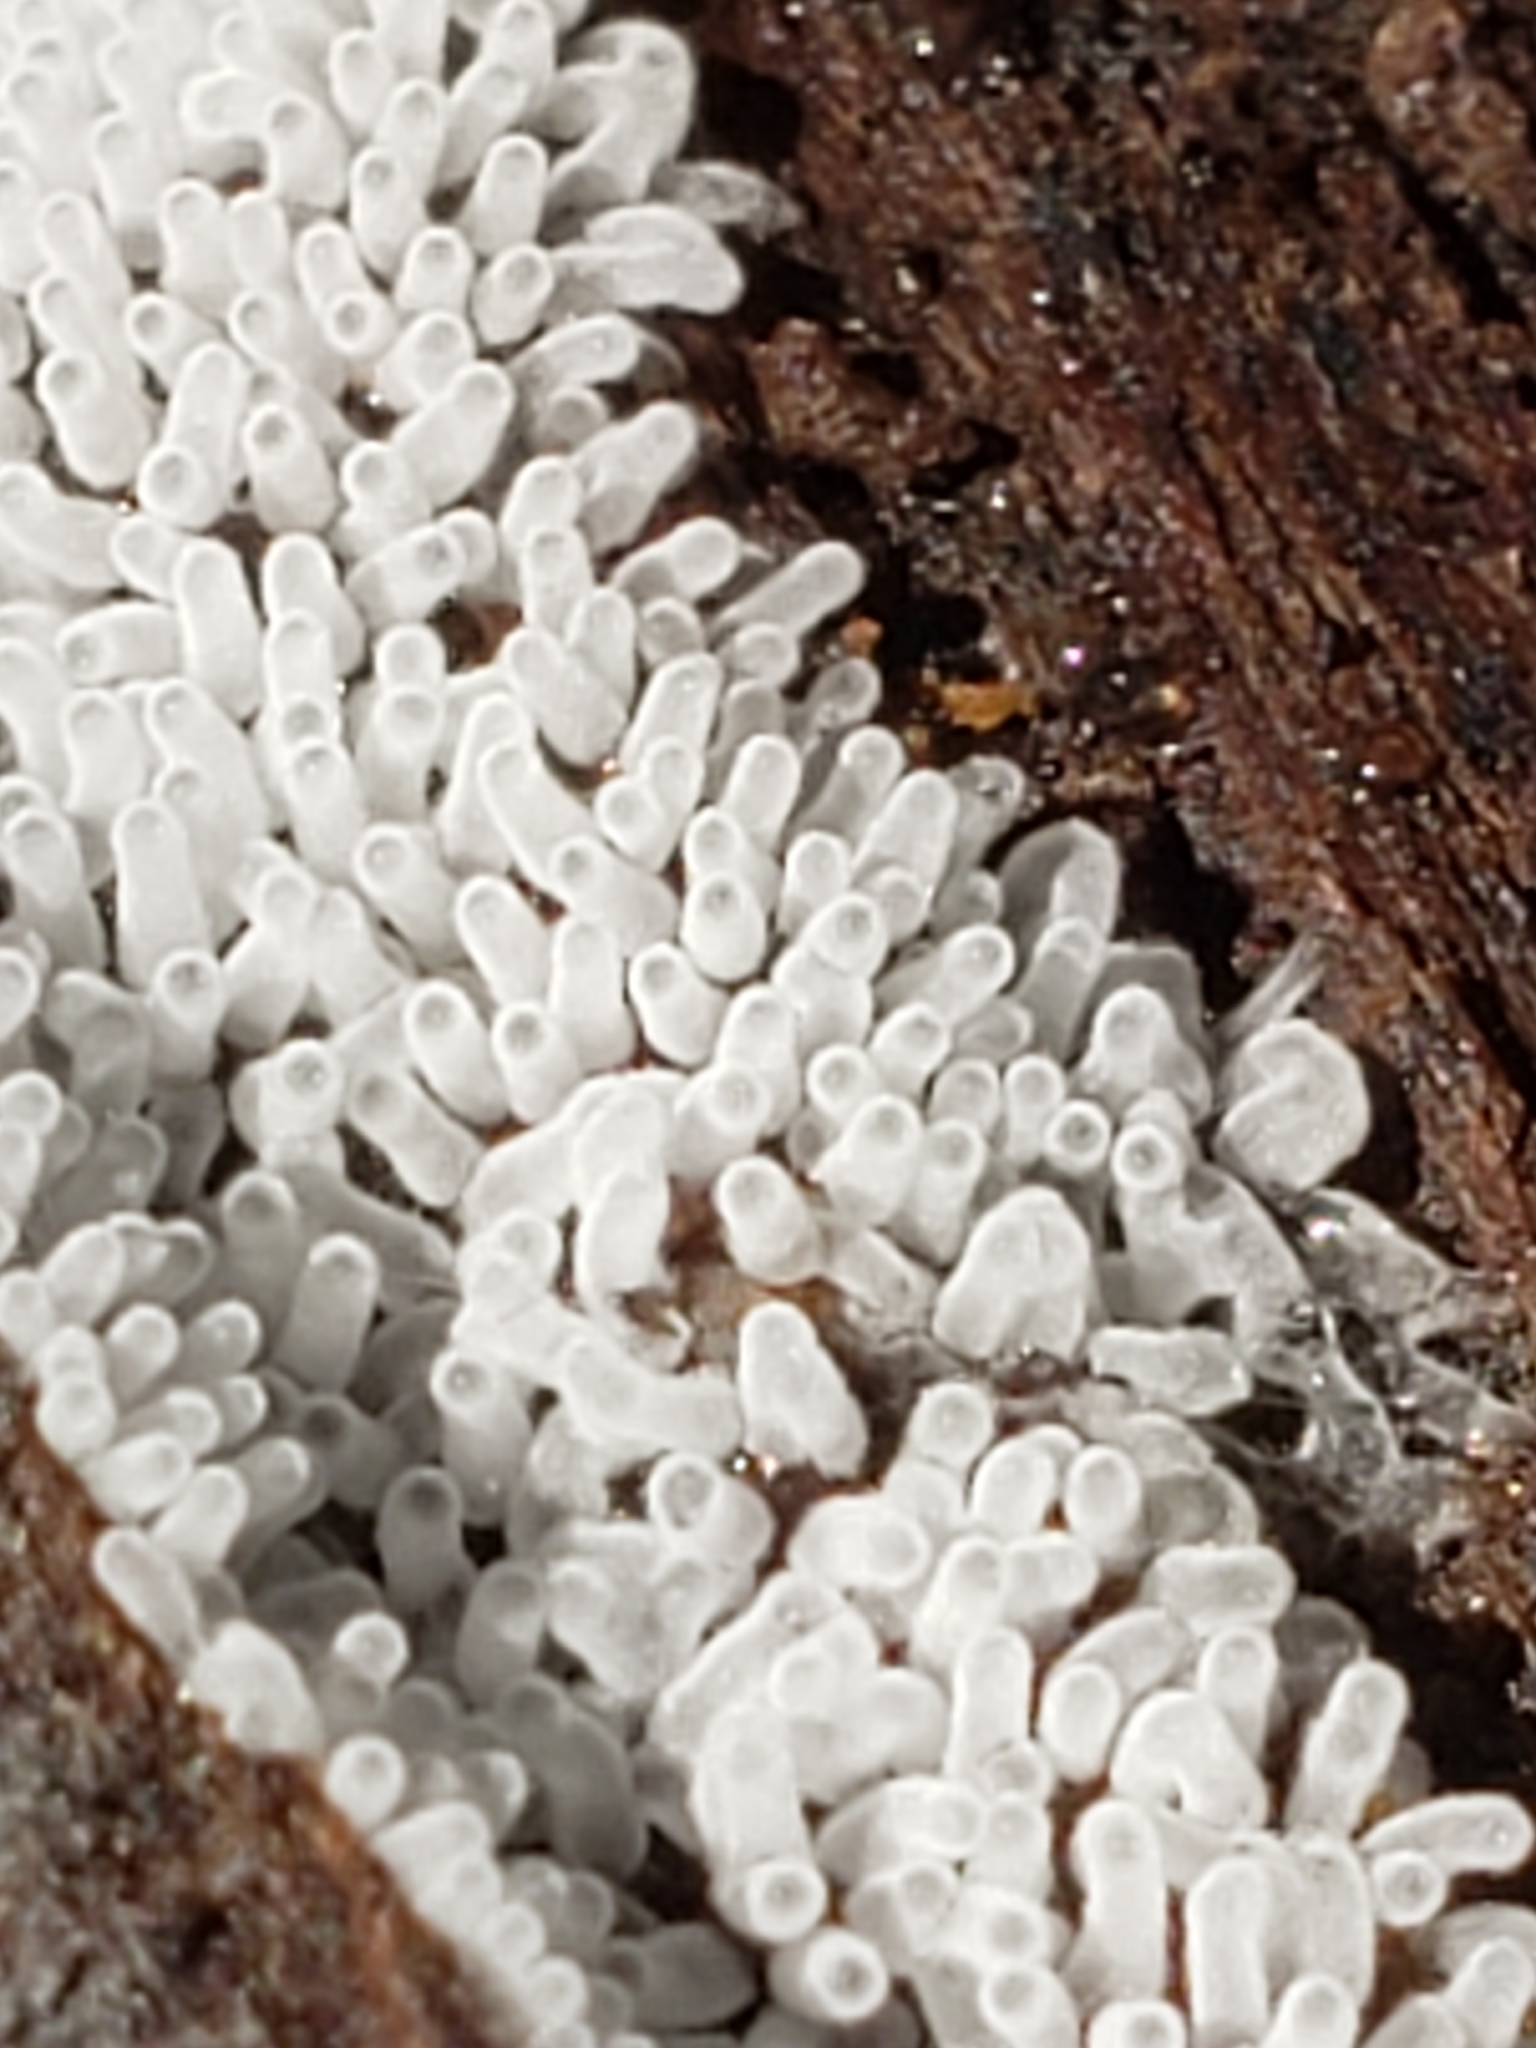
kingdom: Protozoa
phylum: Mycetozoa
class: Protosteliomycetes
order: Ceratiomyxales
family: Ceratiomyxaceae
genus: Ceratiomyxa
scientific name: Ceratiomyxa fruticulosa
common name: Honeycomb coral slime mold
